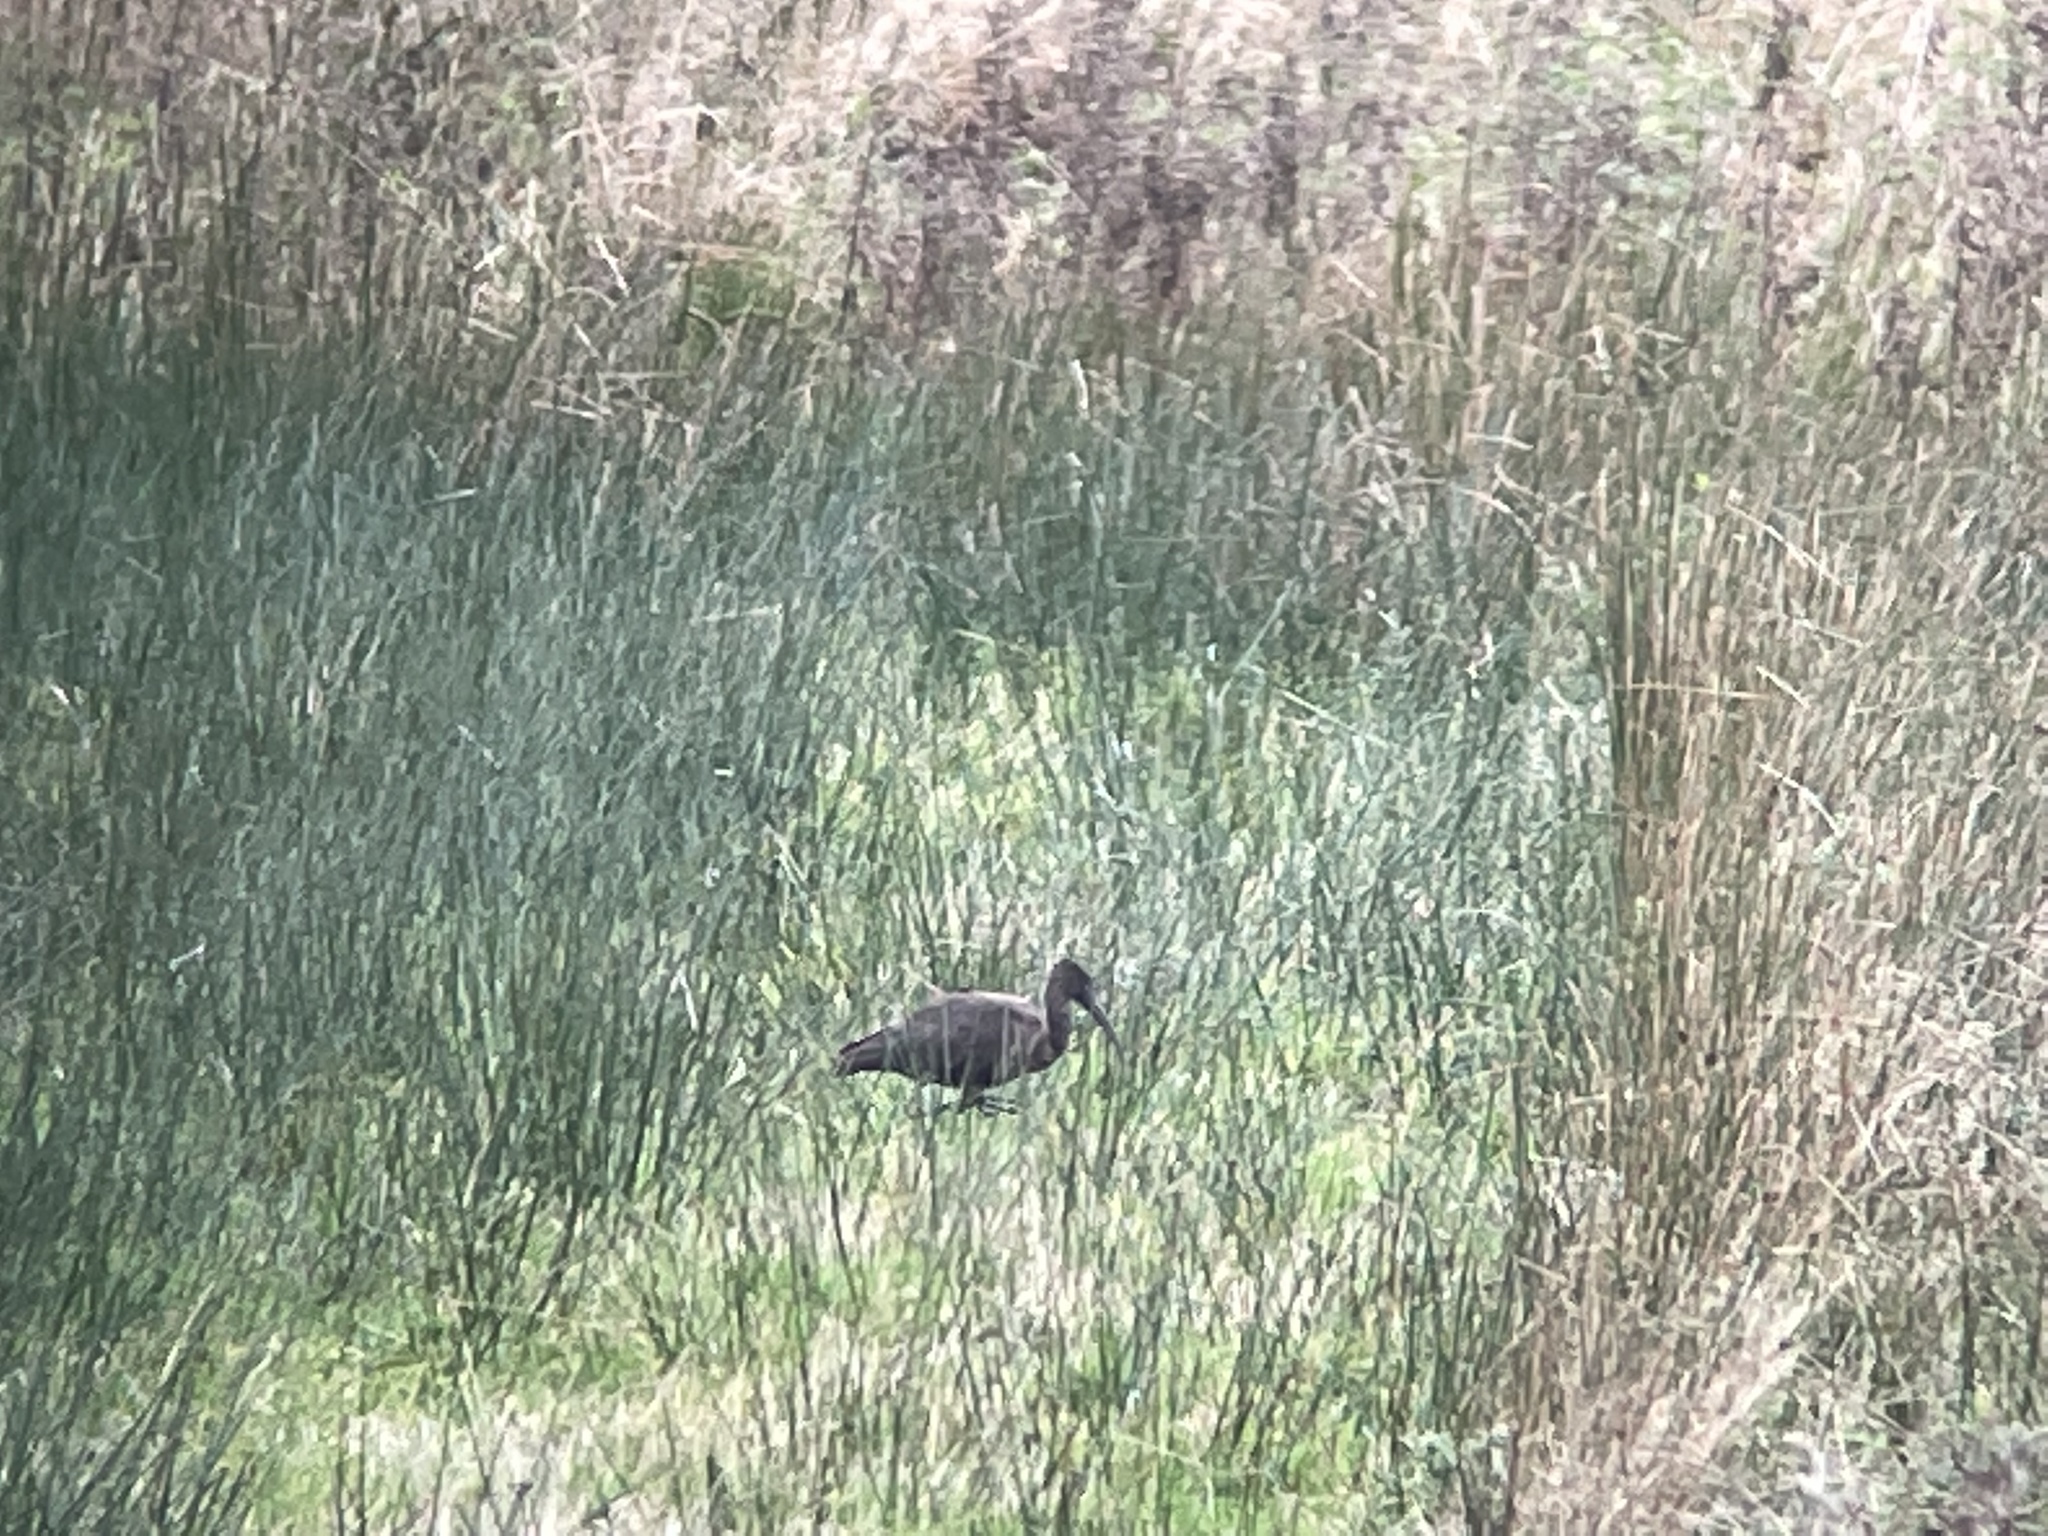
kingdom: Animalia
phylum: Chordata
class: Aves
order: Pelecaniformes
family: Threskiornithidae
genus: Plegadis
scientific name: Plegadis falcinellus
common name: Glossy ibis
